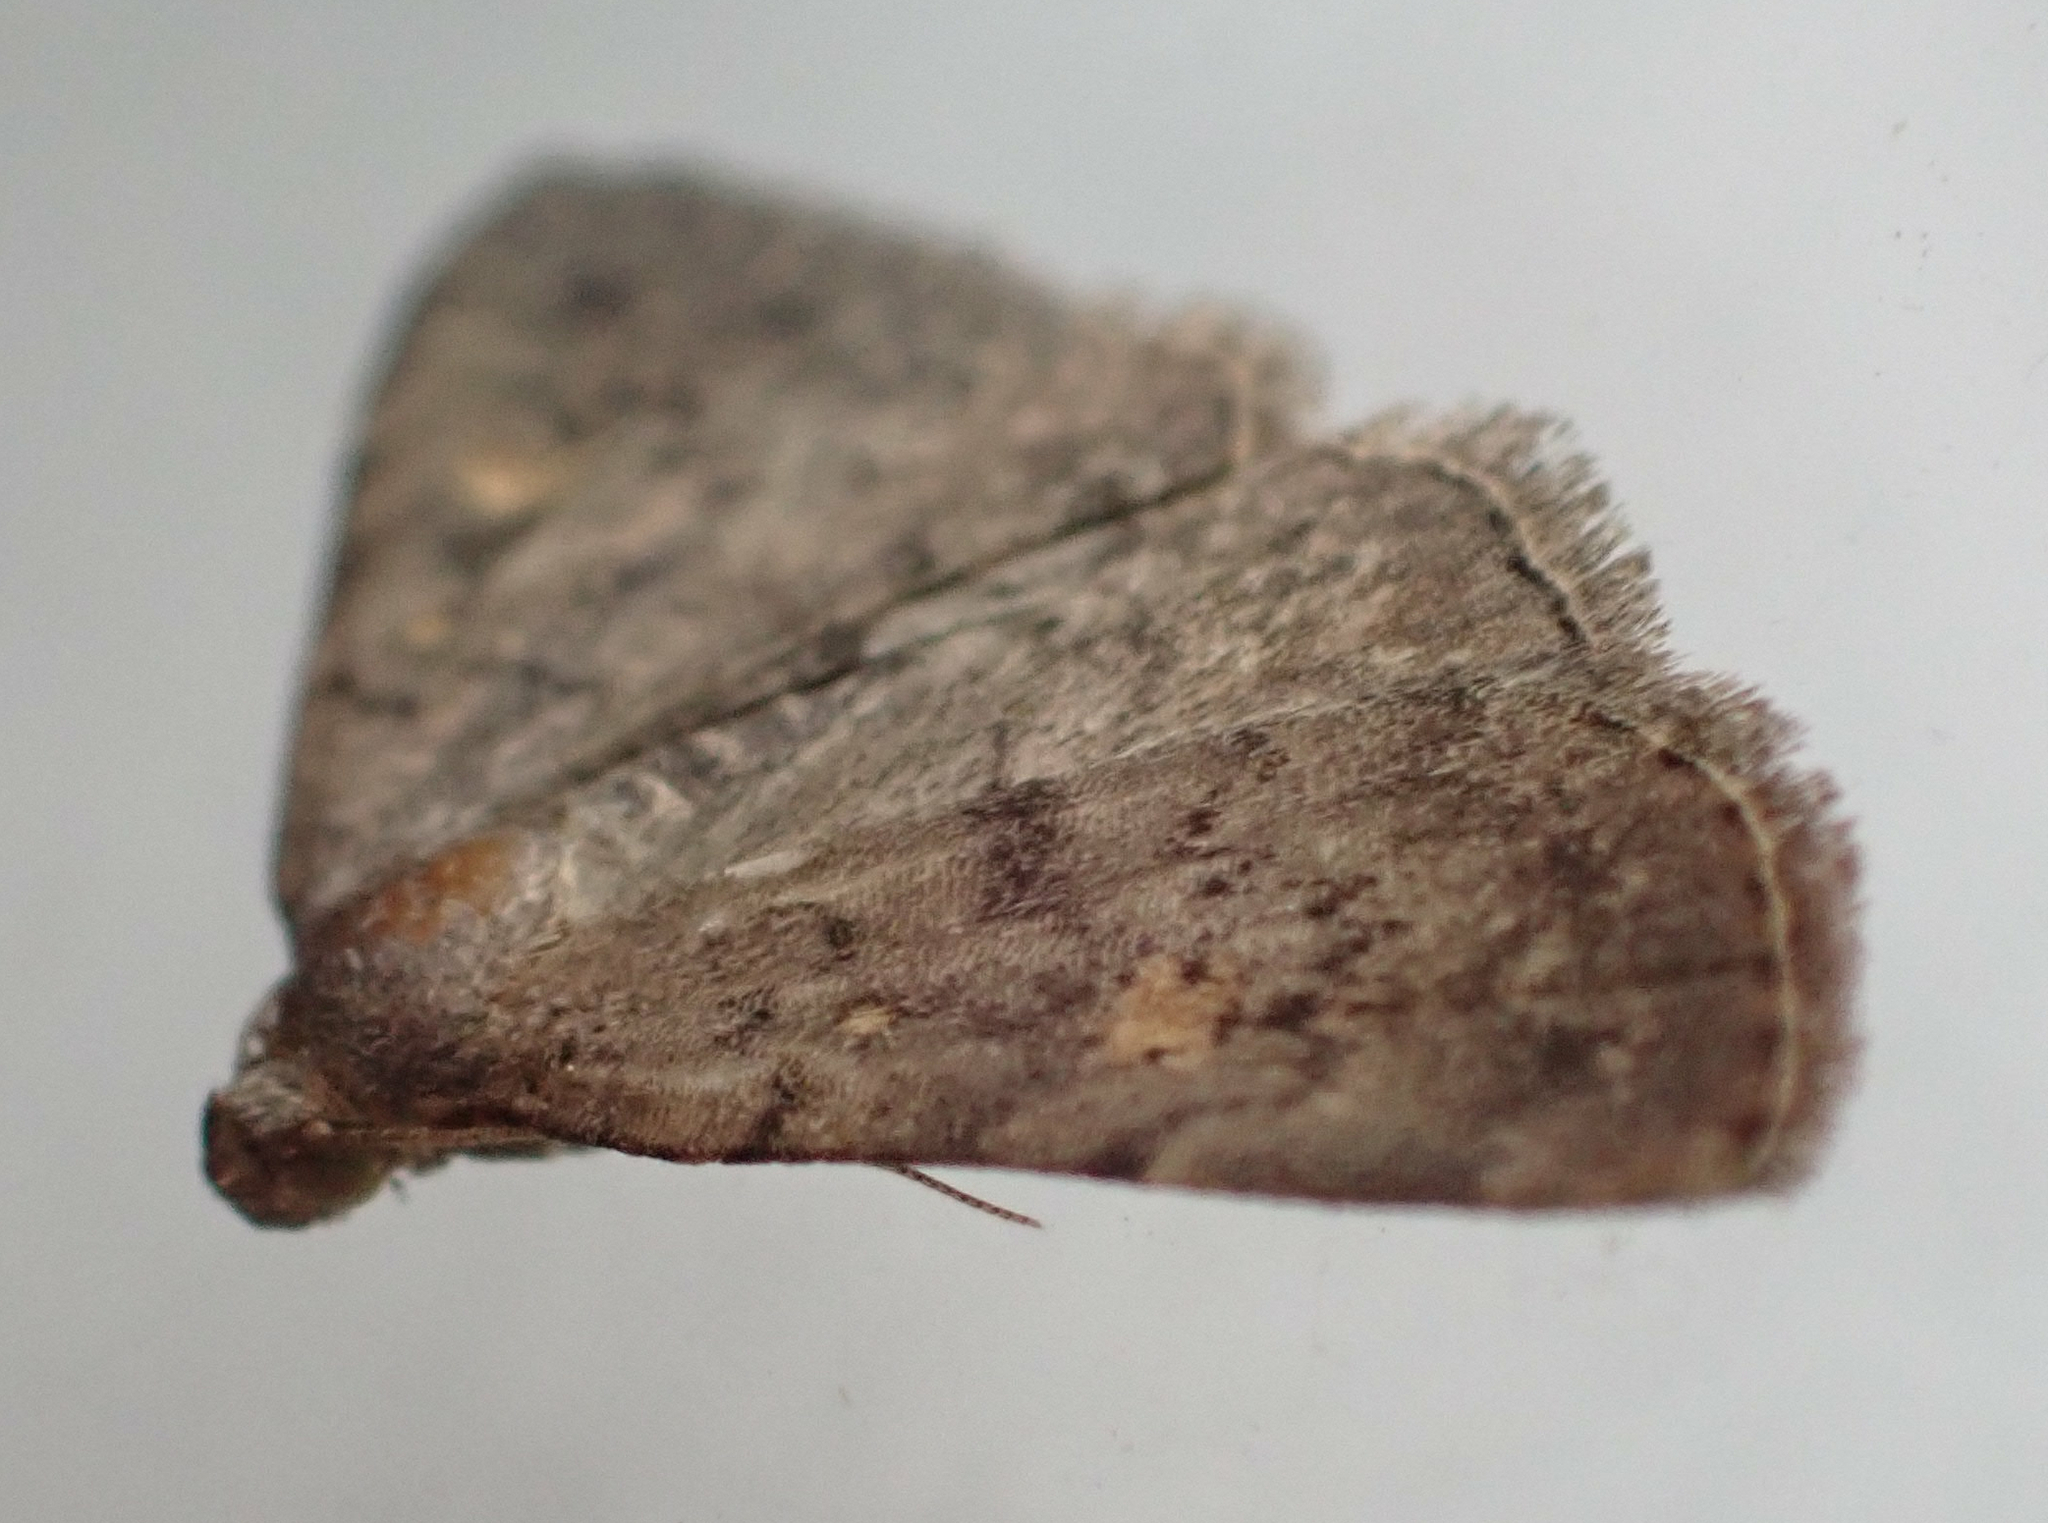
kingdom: Animalia
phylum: Arthropoda
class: Insecta
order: Lepidoptera
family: Erebidae
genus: Idia
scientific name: Idia aemula
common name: Common idia moth
